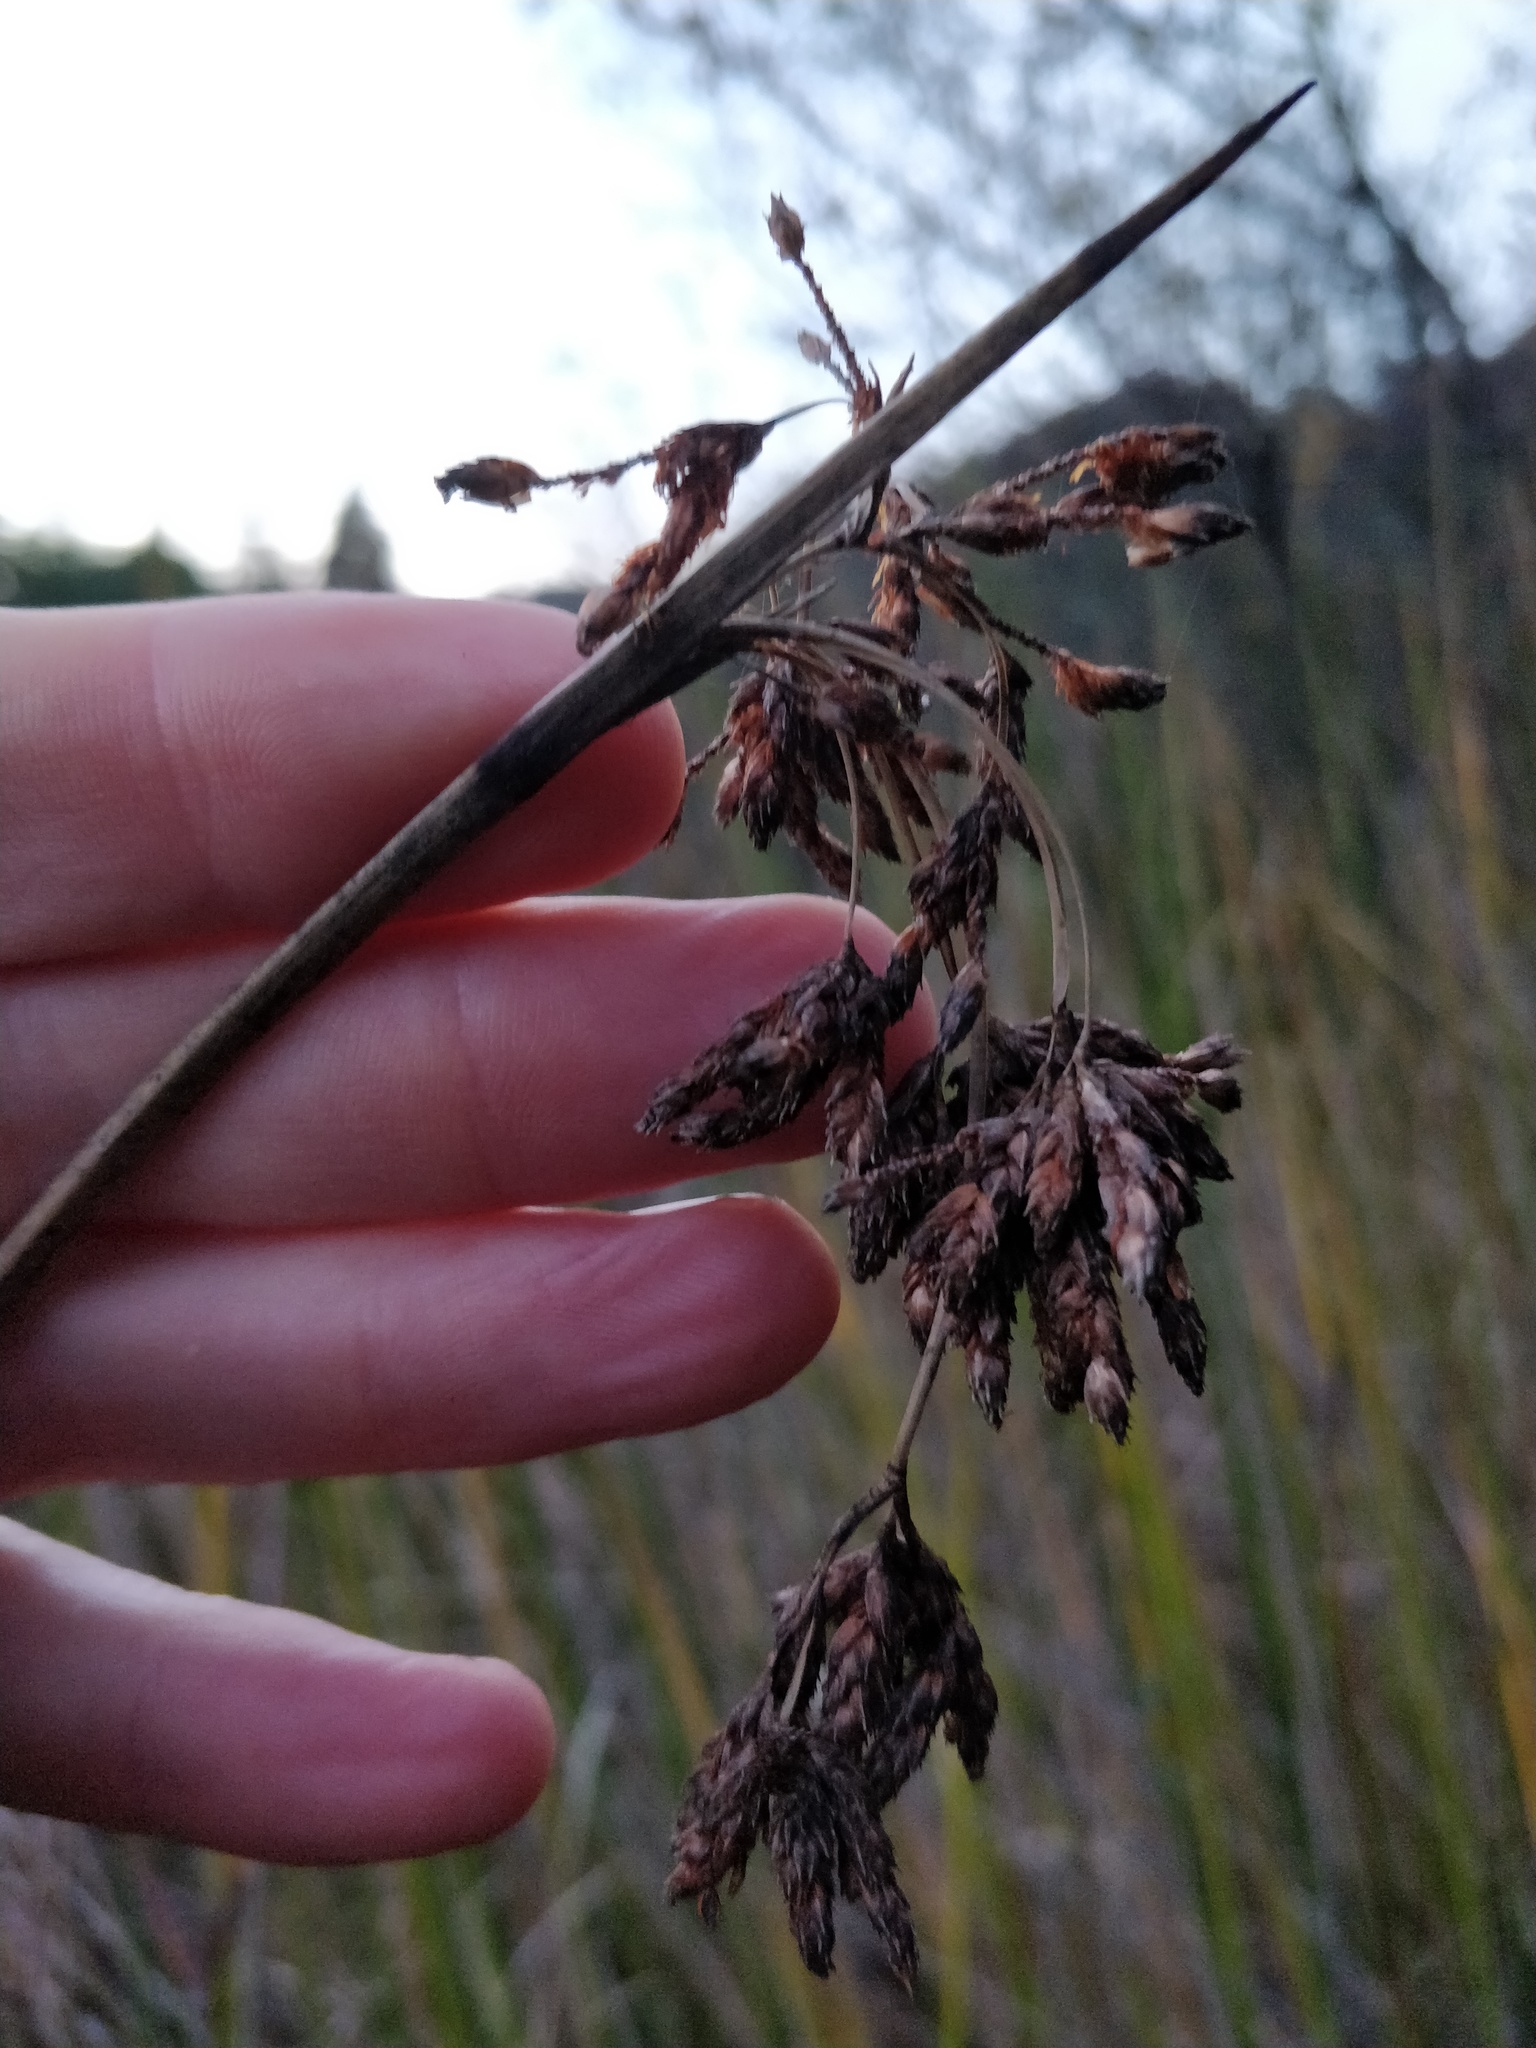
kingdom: Plantae
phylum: Tracheophyta
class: Liliopsida
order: Poales
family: Cyperaceae
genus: Schoenoplectus
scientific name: Schoenoplectus californicus
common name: California bulrush
